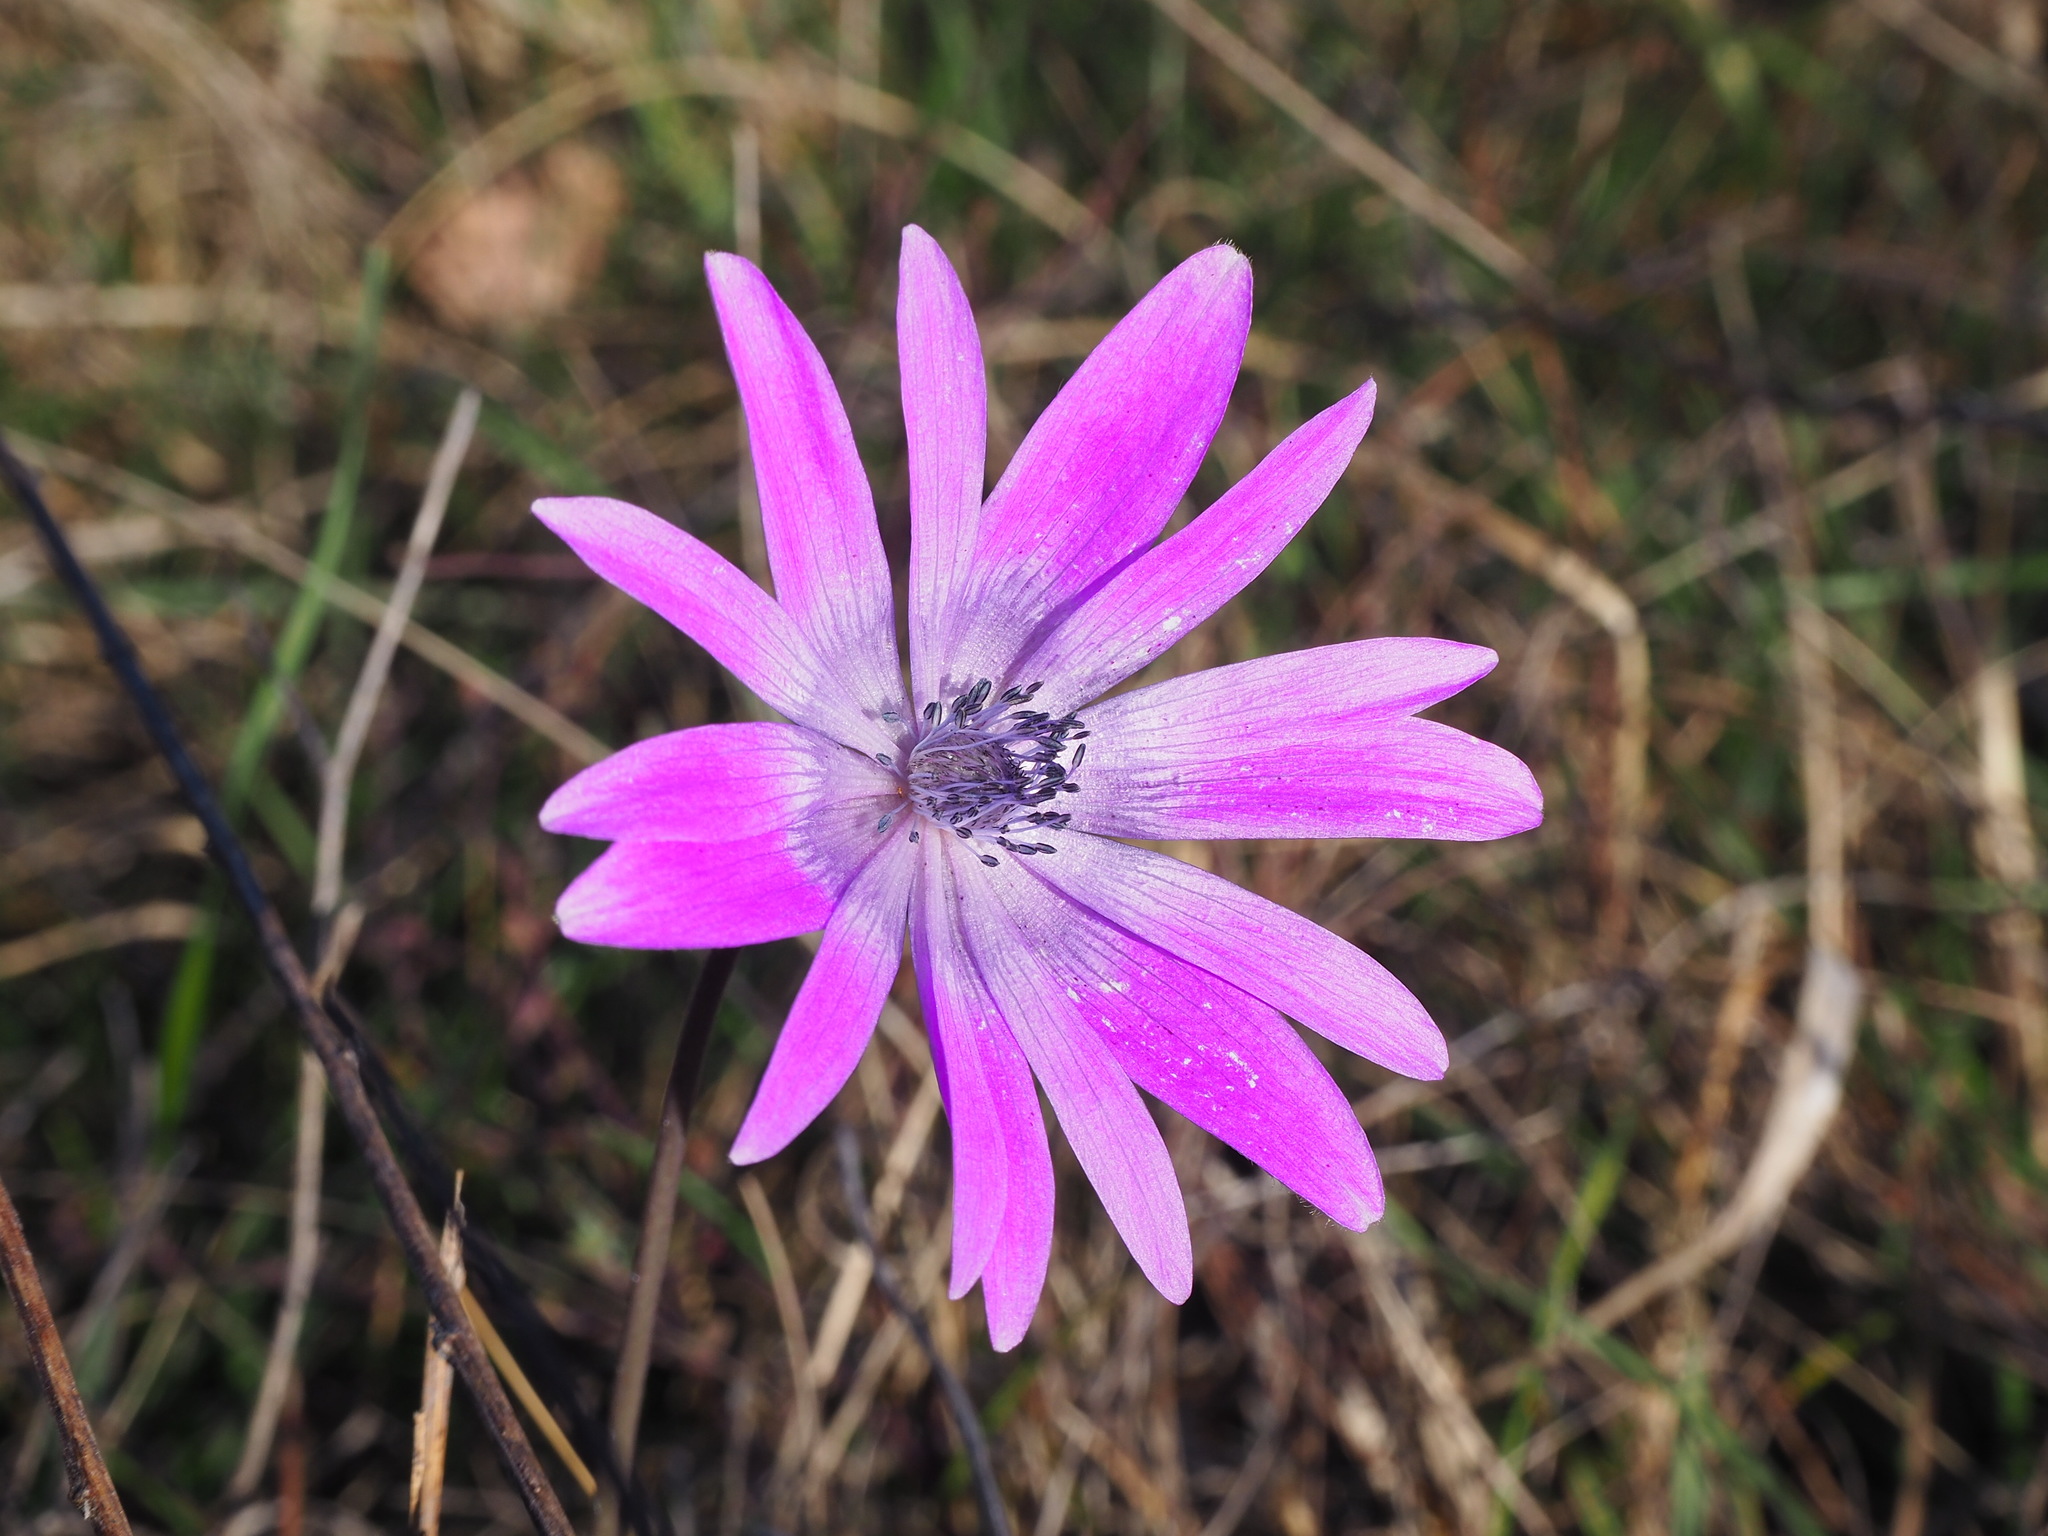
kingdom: Plantae
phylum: Tracheophyta
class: Magnoliopsida
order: Ranunculales
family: Ranunculaceae
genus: Anemone
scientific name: Anemone hortensis
